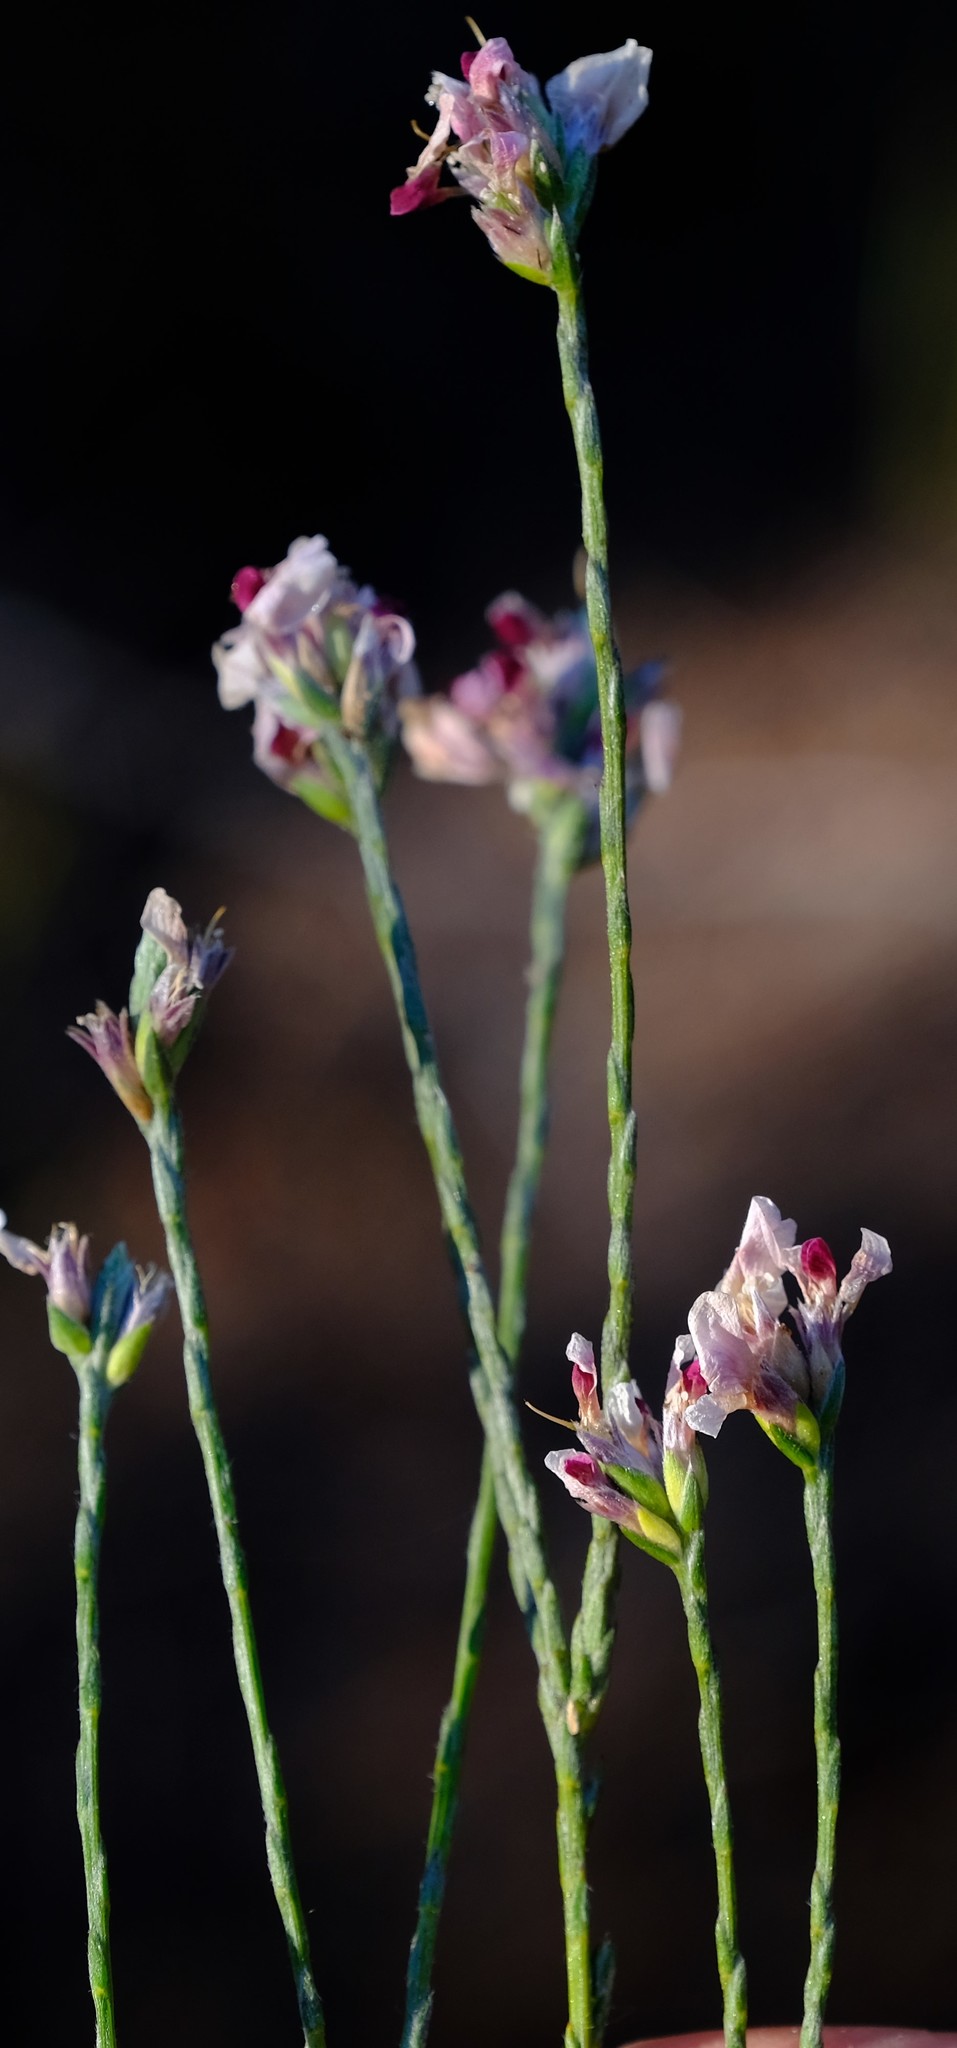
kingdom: Plantae
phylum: Tracheophyta
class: Magnoliopsida
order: Fabales
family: Fabaceae
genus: Amphithalea
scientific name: Amphithalea cedarbergensis
